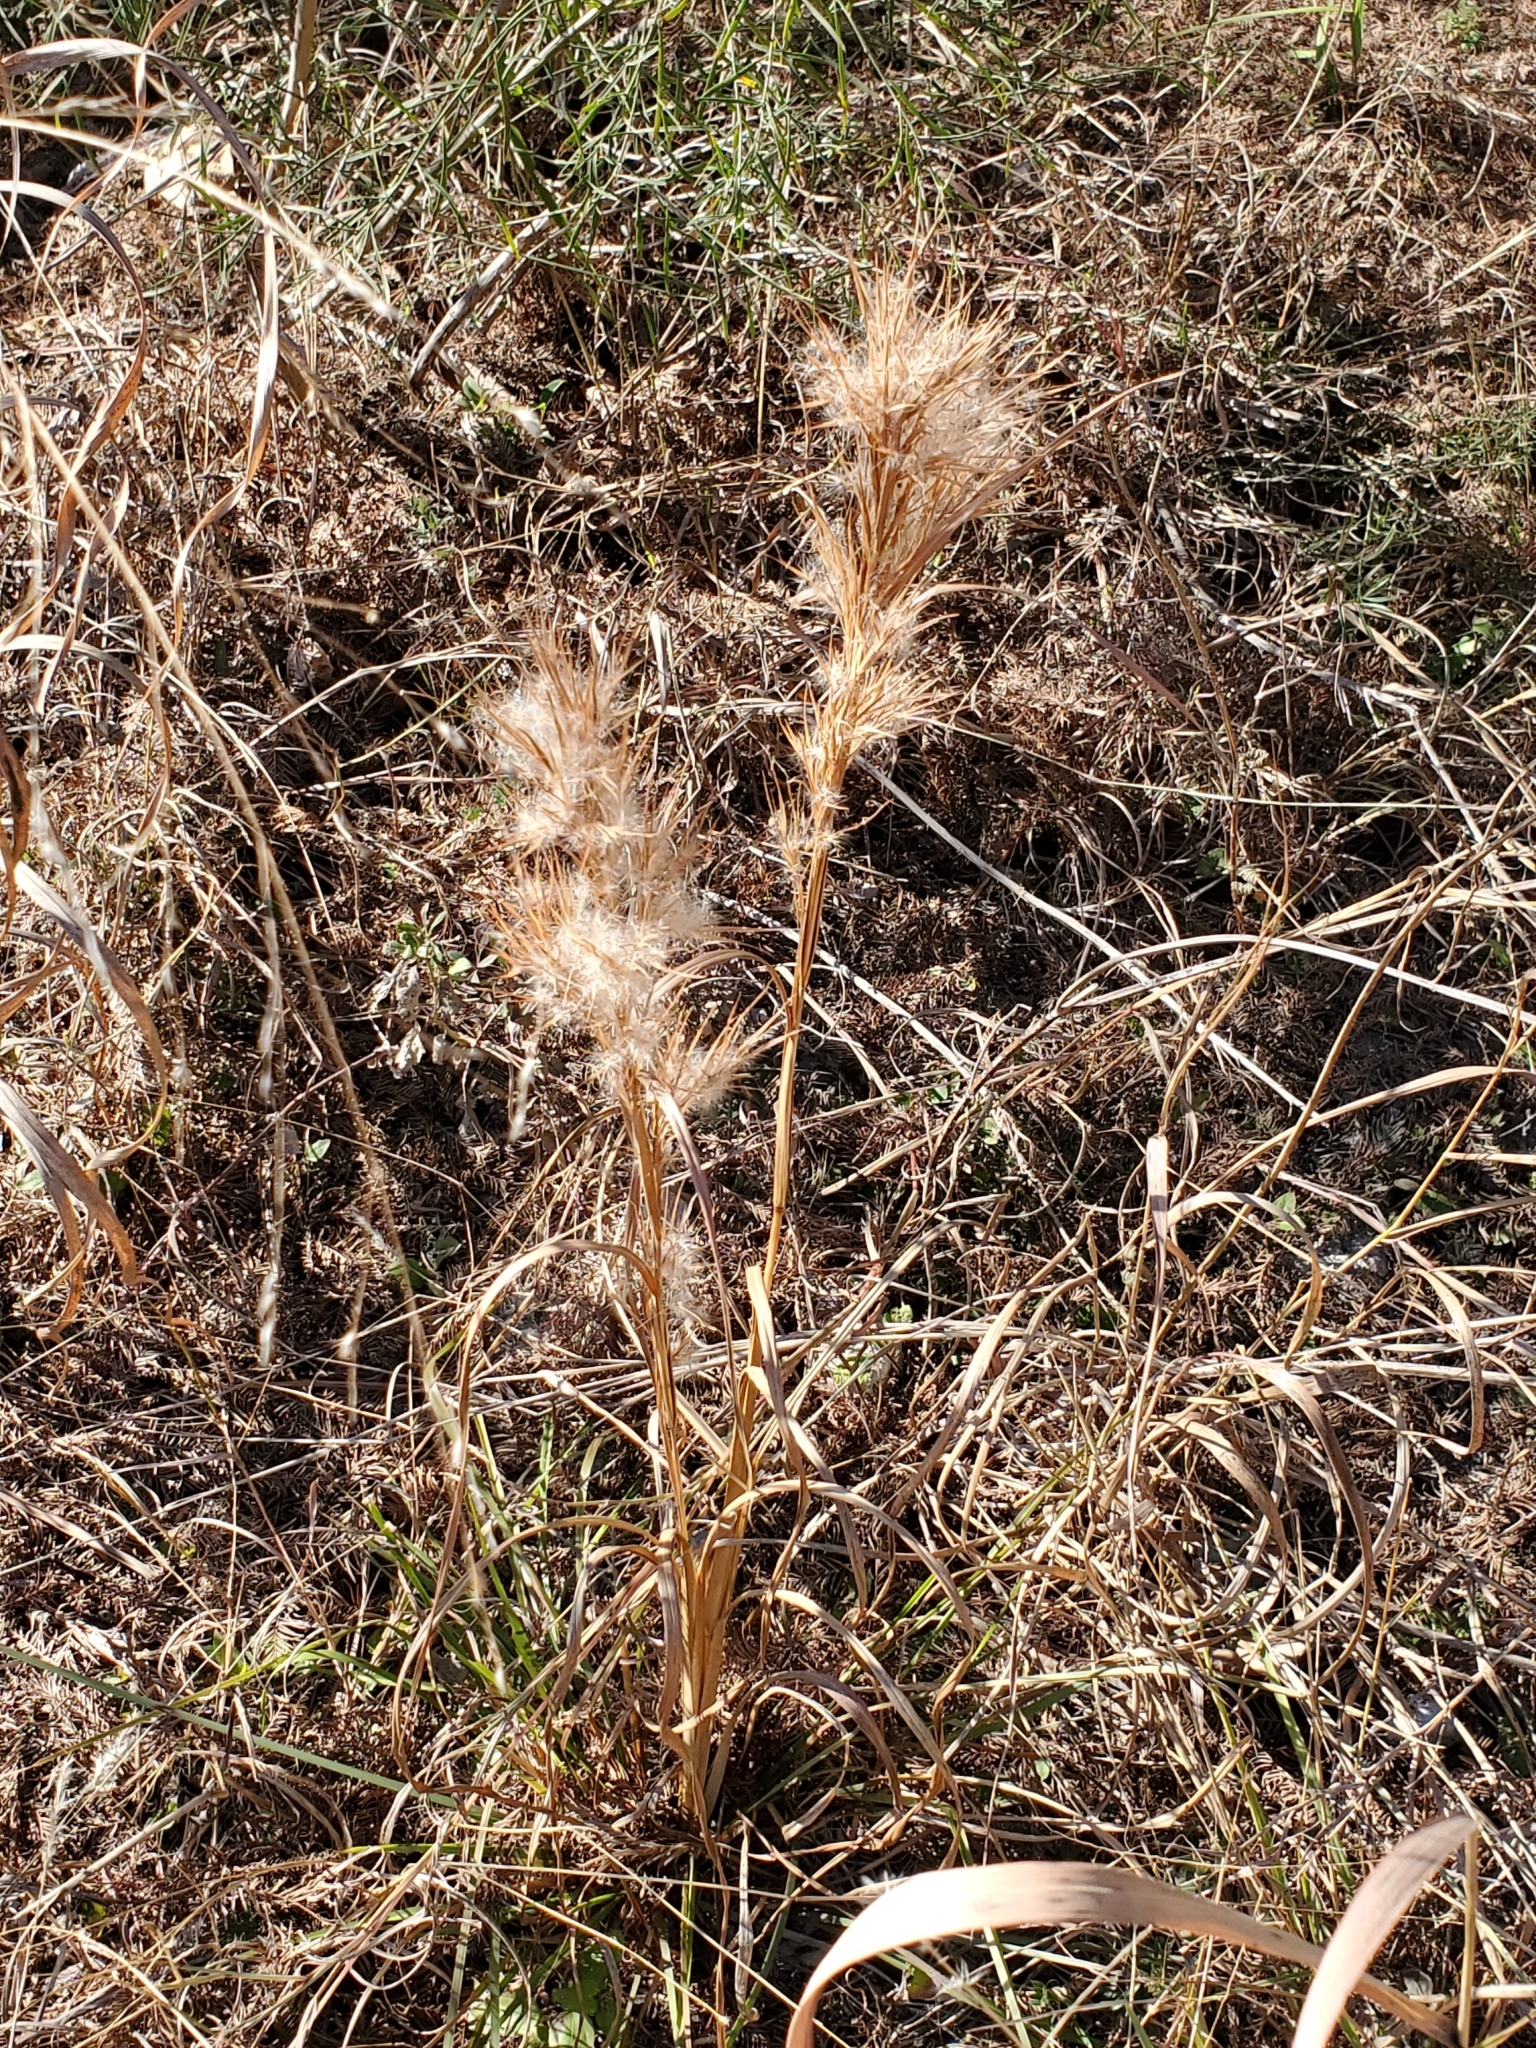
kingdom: Plantae
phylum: Tracheophyta
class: Liliopsida
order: Poales
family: Poaceae
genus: Andropogon
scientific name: Andropogon tenuispatheus
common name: Bushy bluestem
